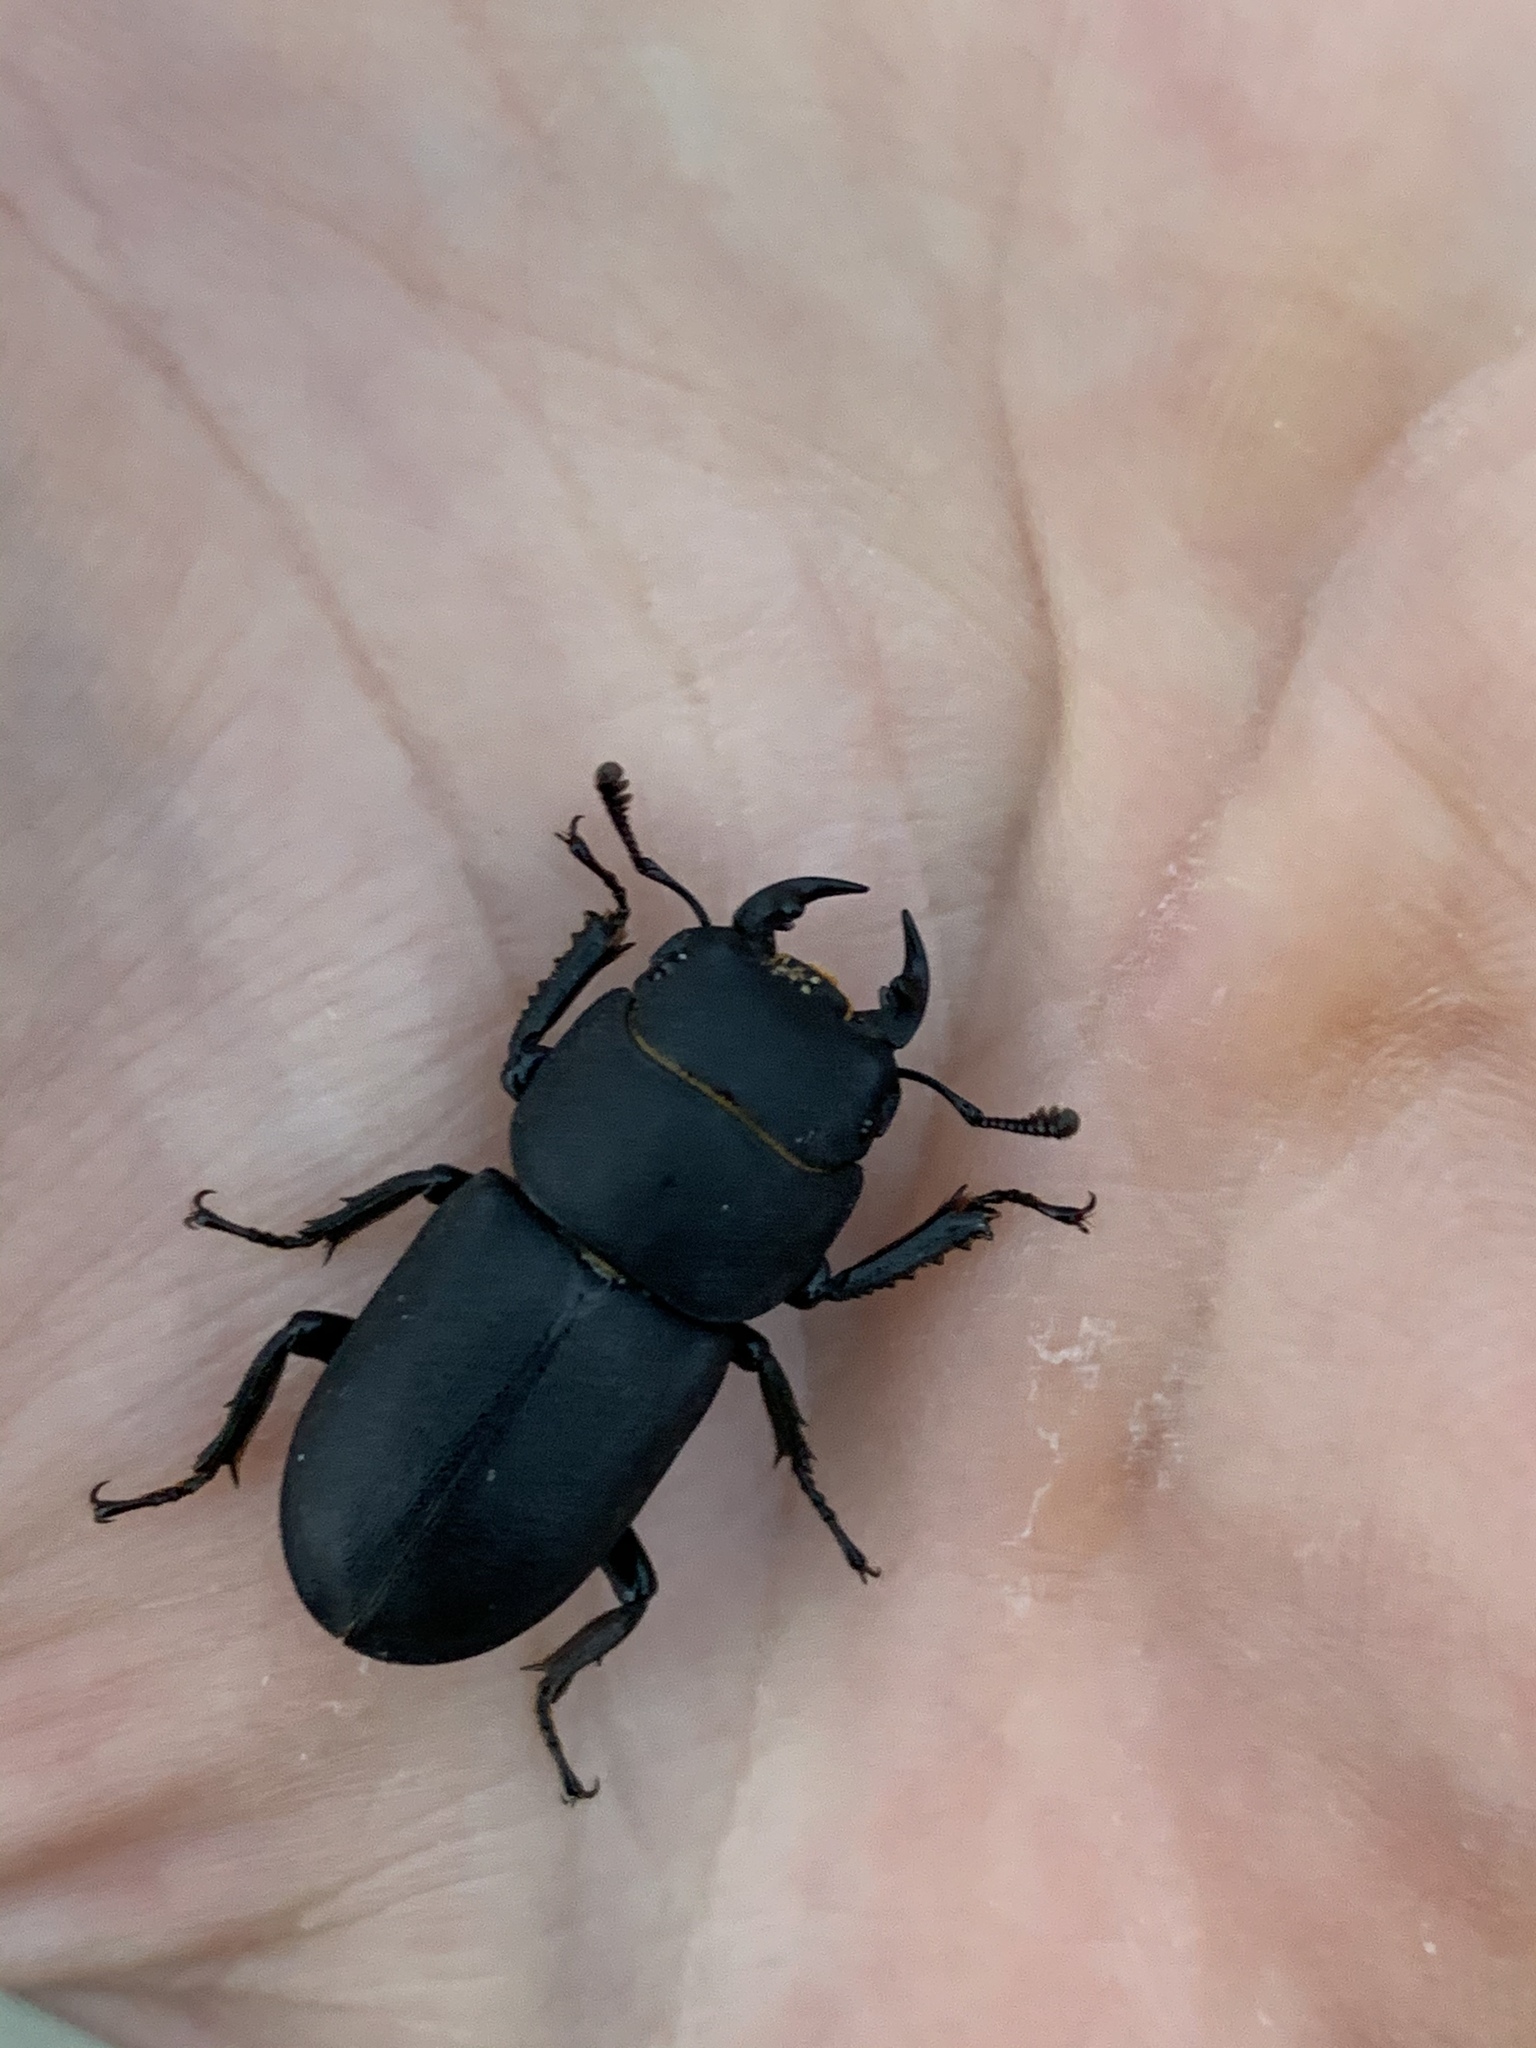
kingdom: Animalia
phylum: Arthropoda
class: Insecta
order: Coleoptera
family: Lucanidae
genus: Dorcus
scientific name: Dorcus parallelipipedus
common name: Lesser stag beetle
